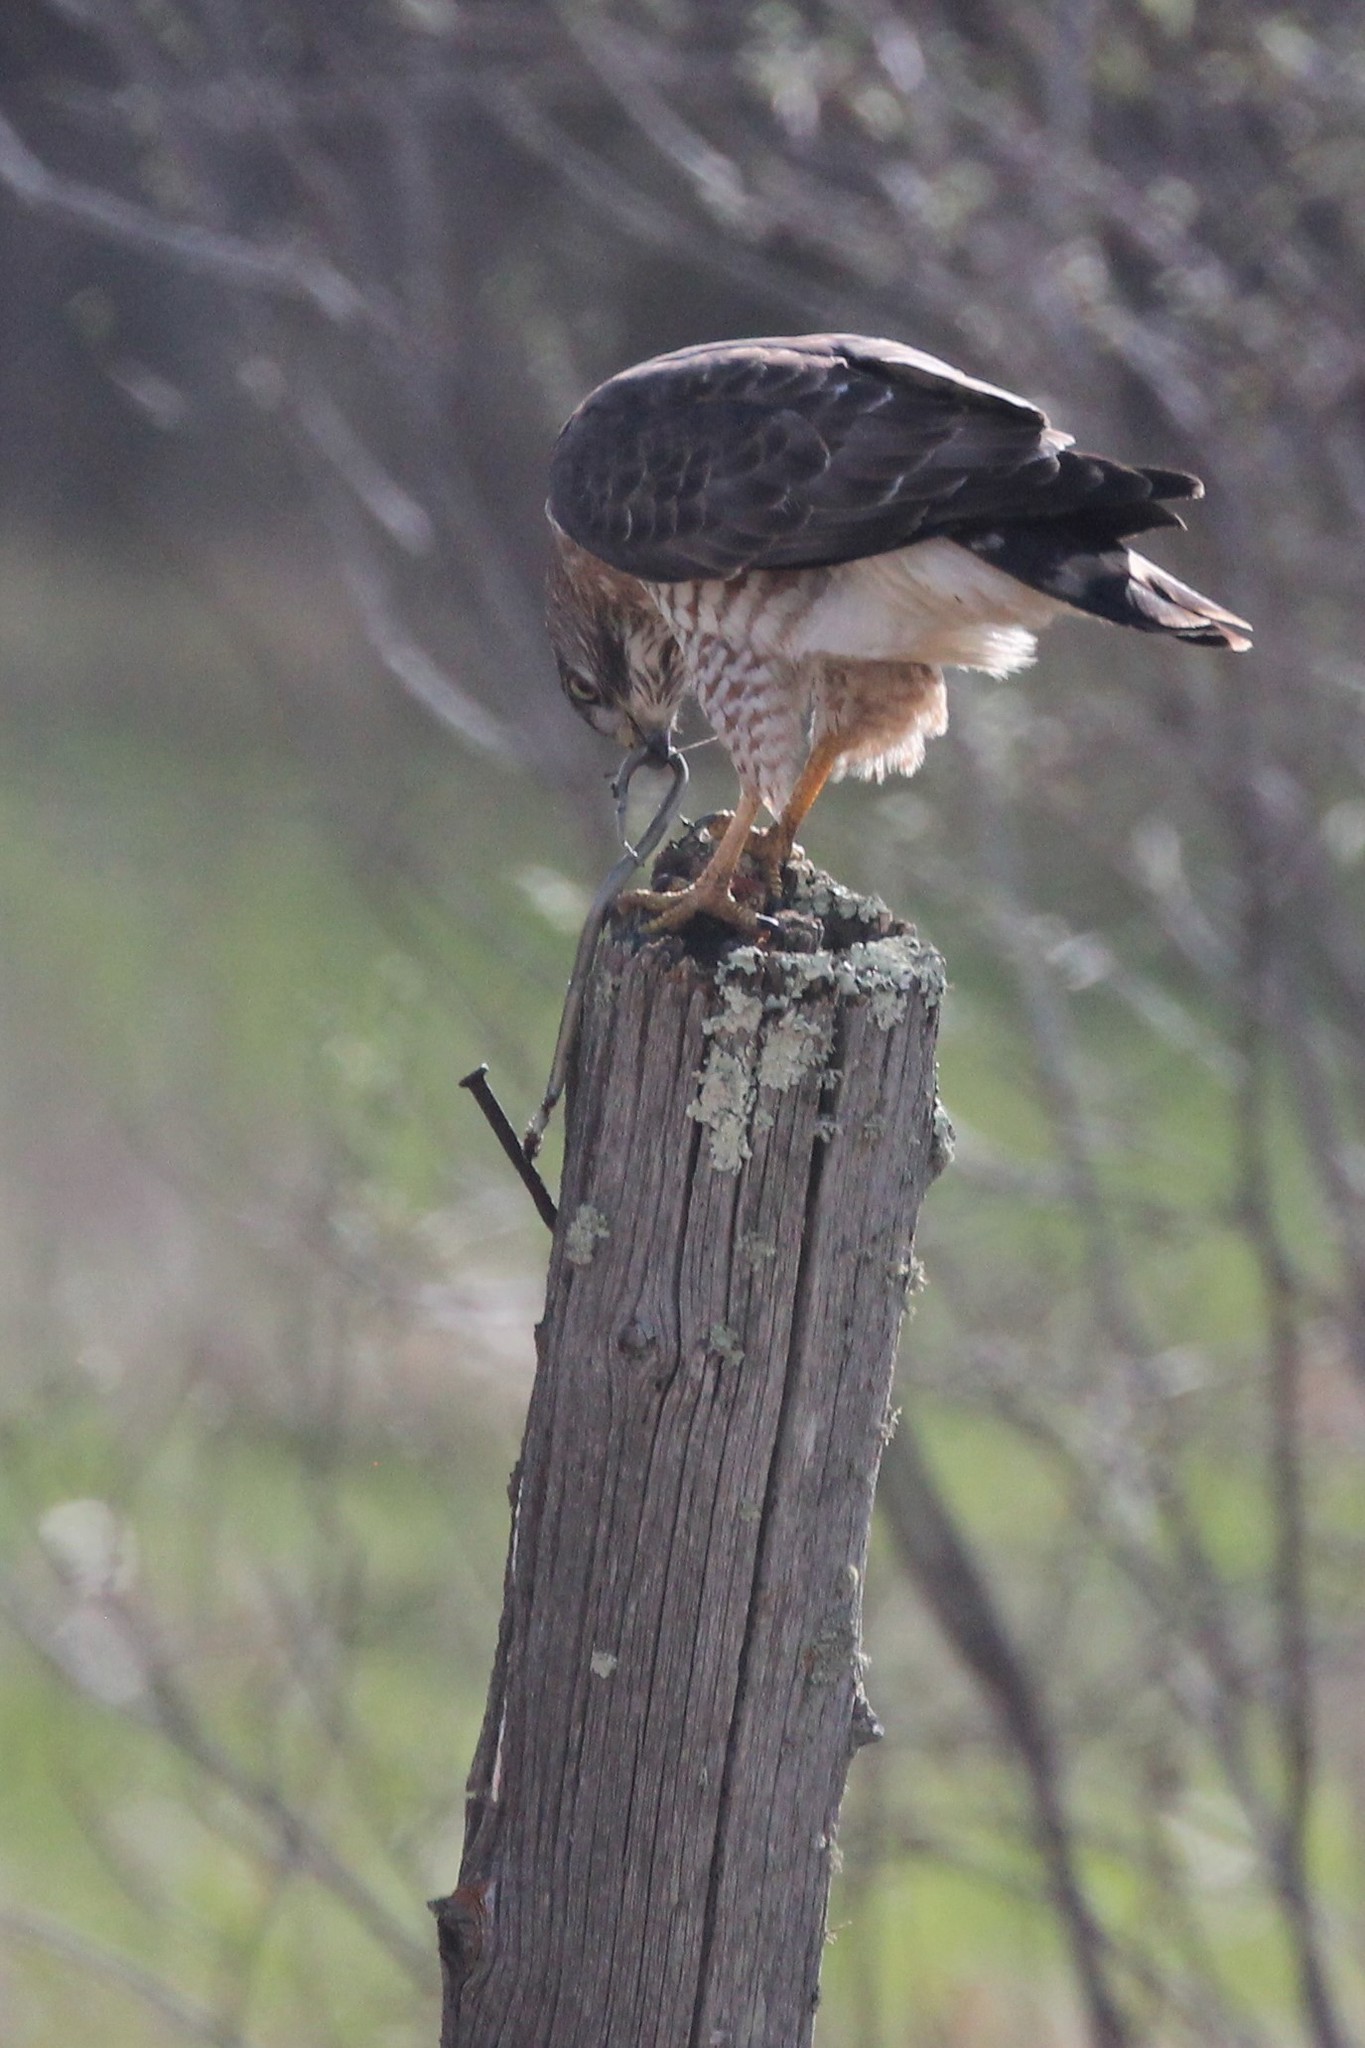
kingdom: Animalia
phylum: Chordata
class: Aves
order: Accipitriformes
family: Accipitridae
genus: Buteo
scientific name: Buteo platypterus
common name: Broad-winged hawk
